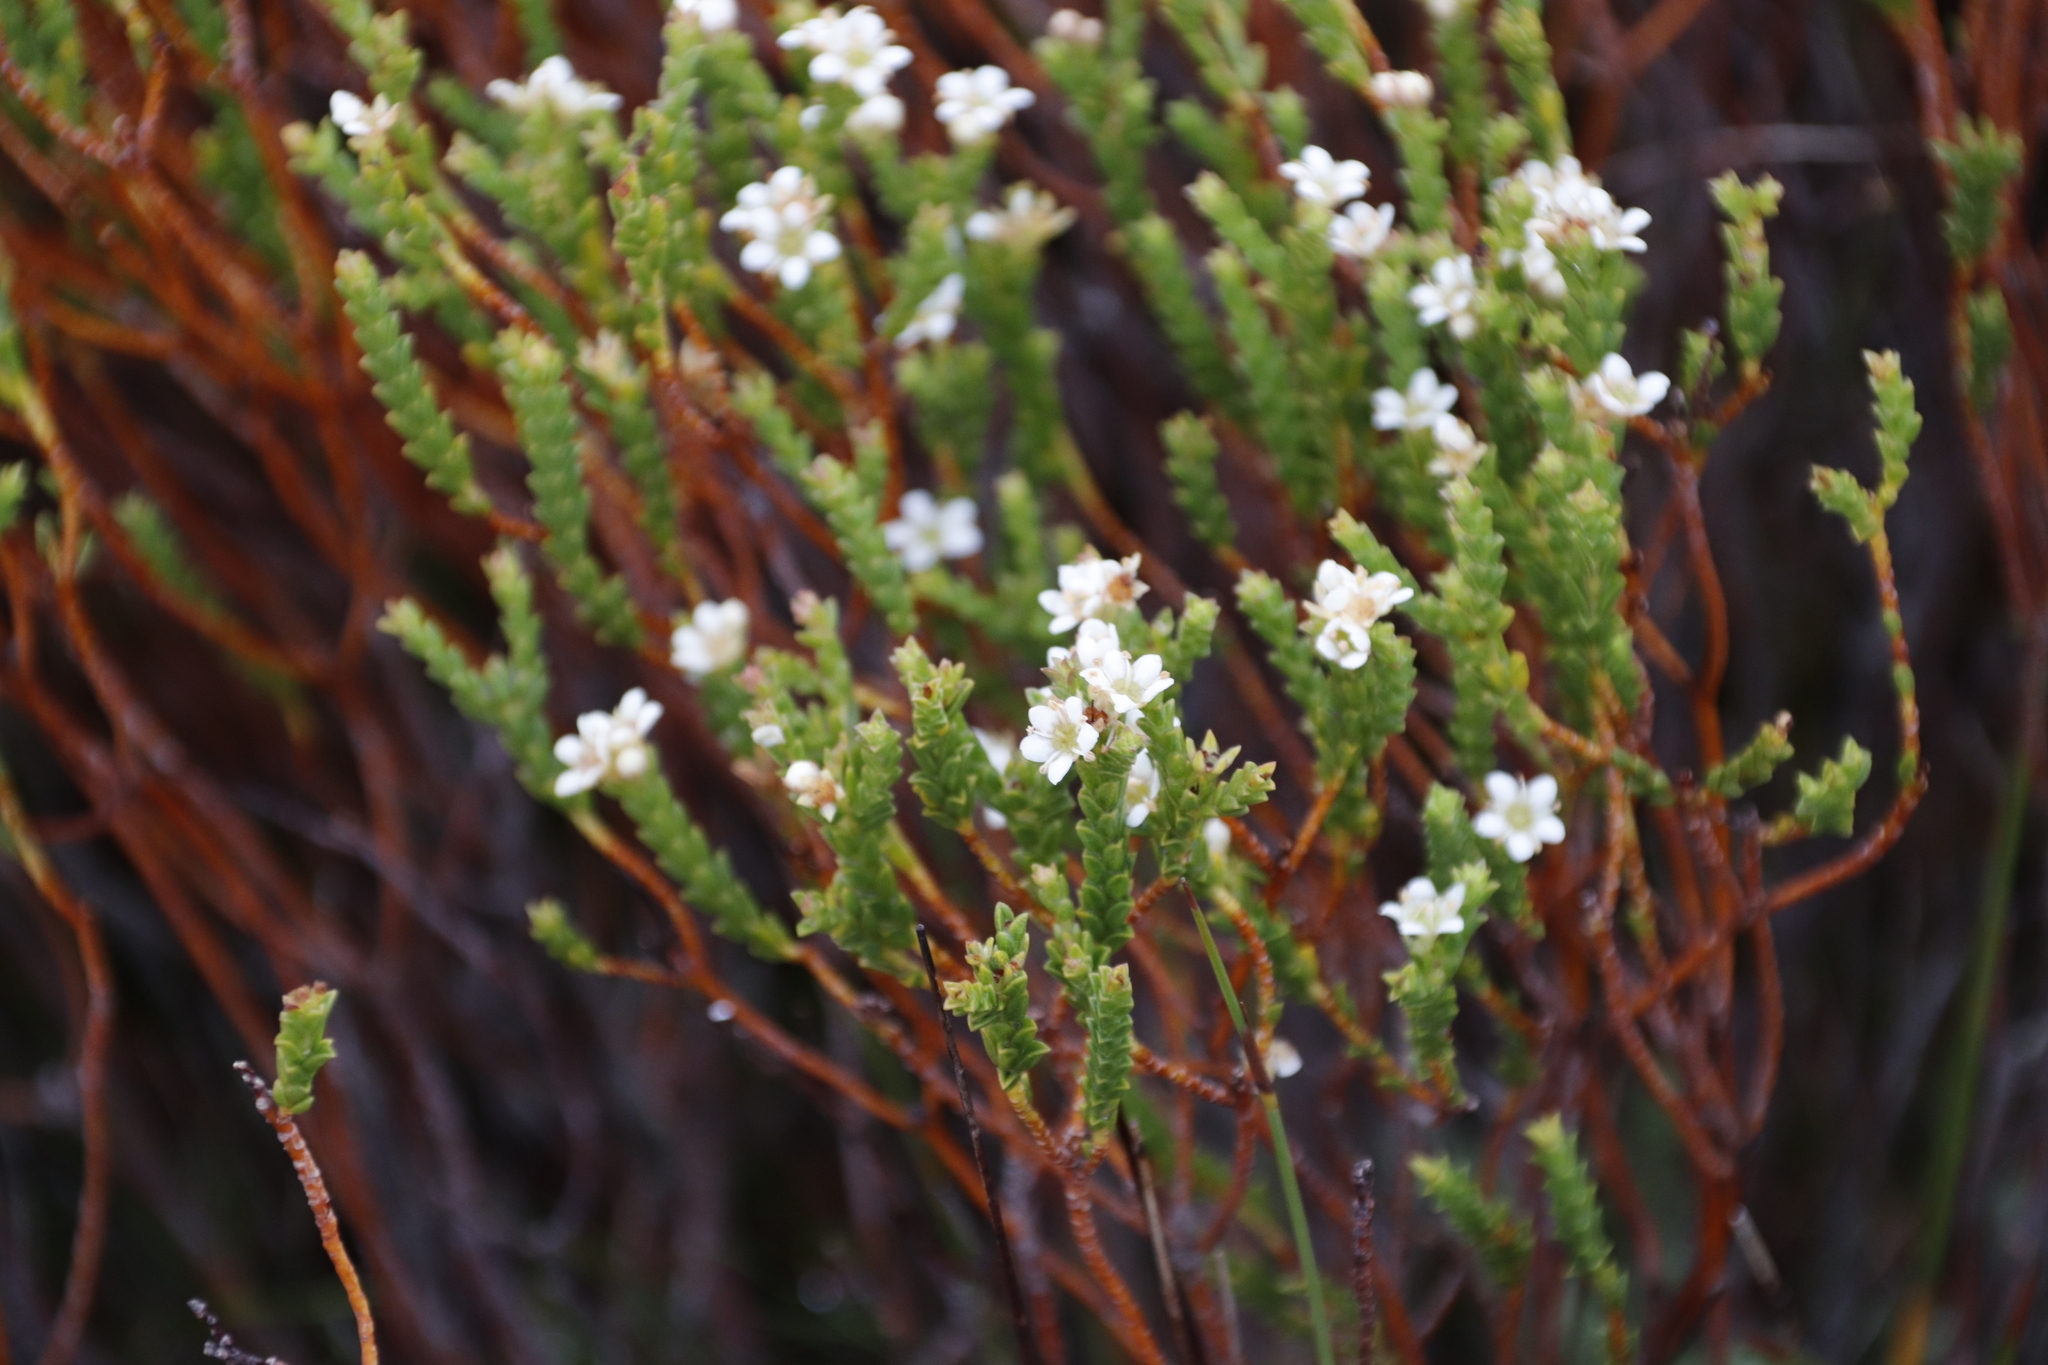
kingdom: Plantae
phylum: Tracheophyta
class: Magnoliopsida
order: Sapindales
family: Rutaceae
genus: Diosma
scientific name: Diosma oppositifolia
